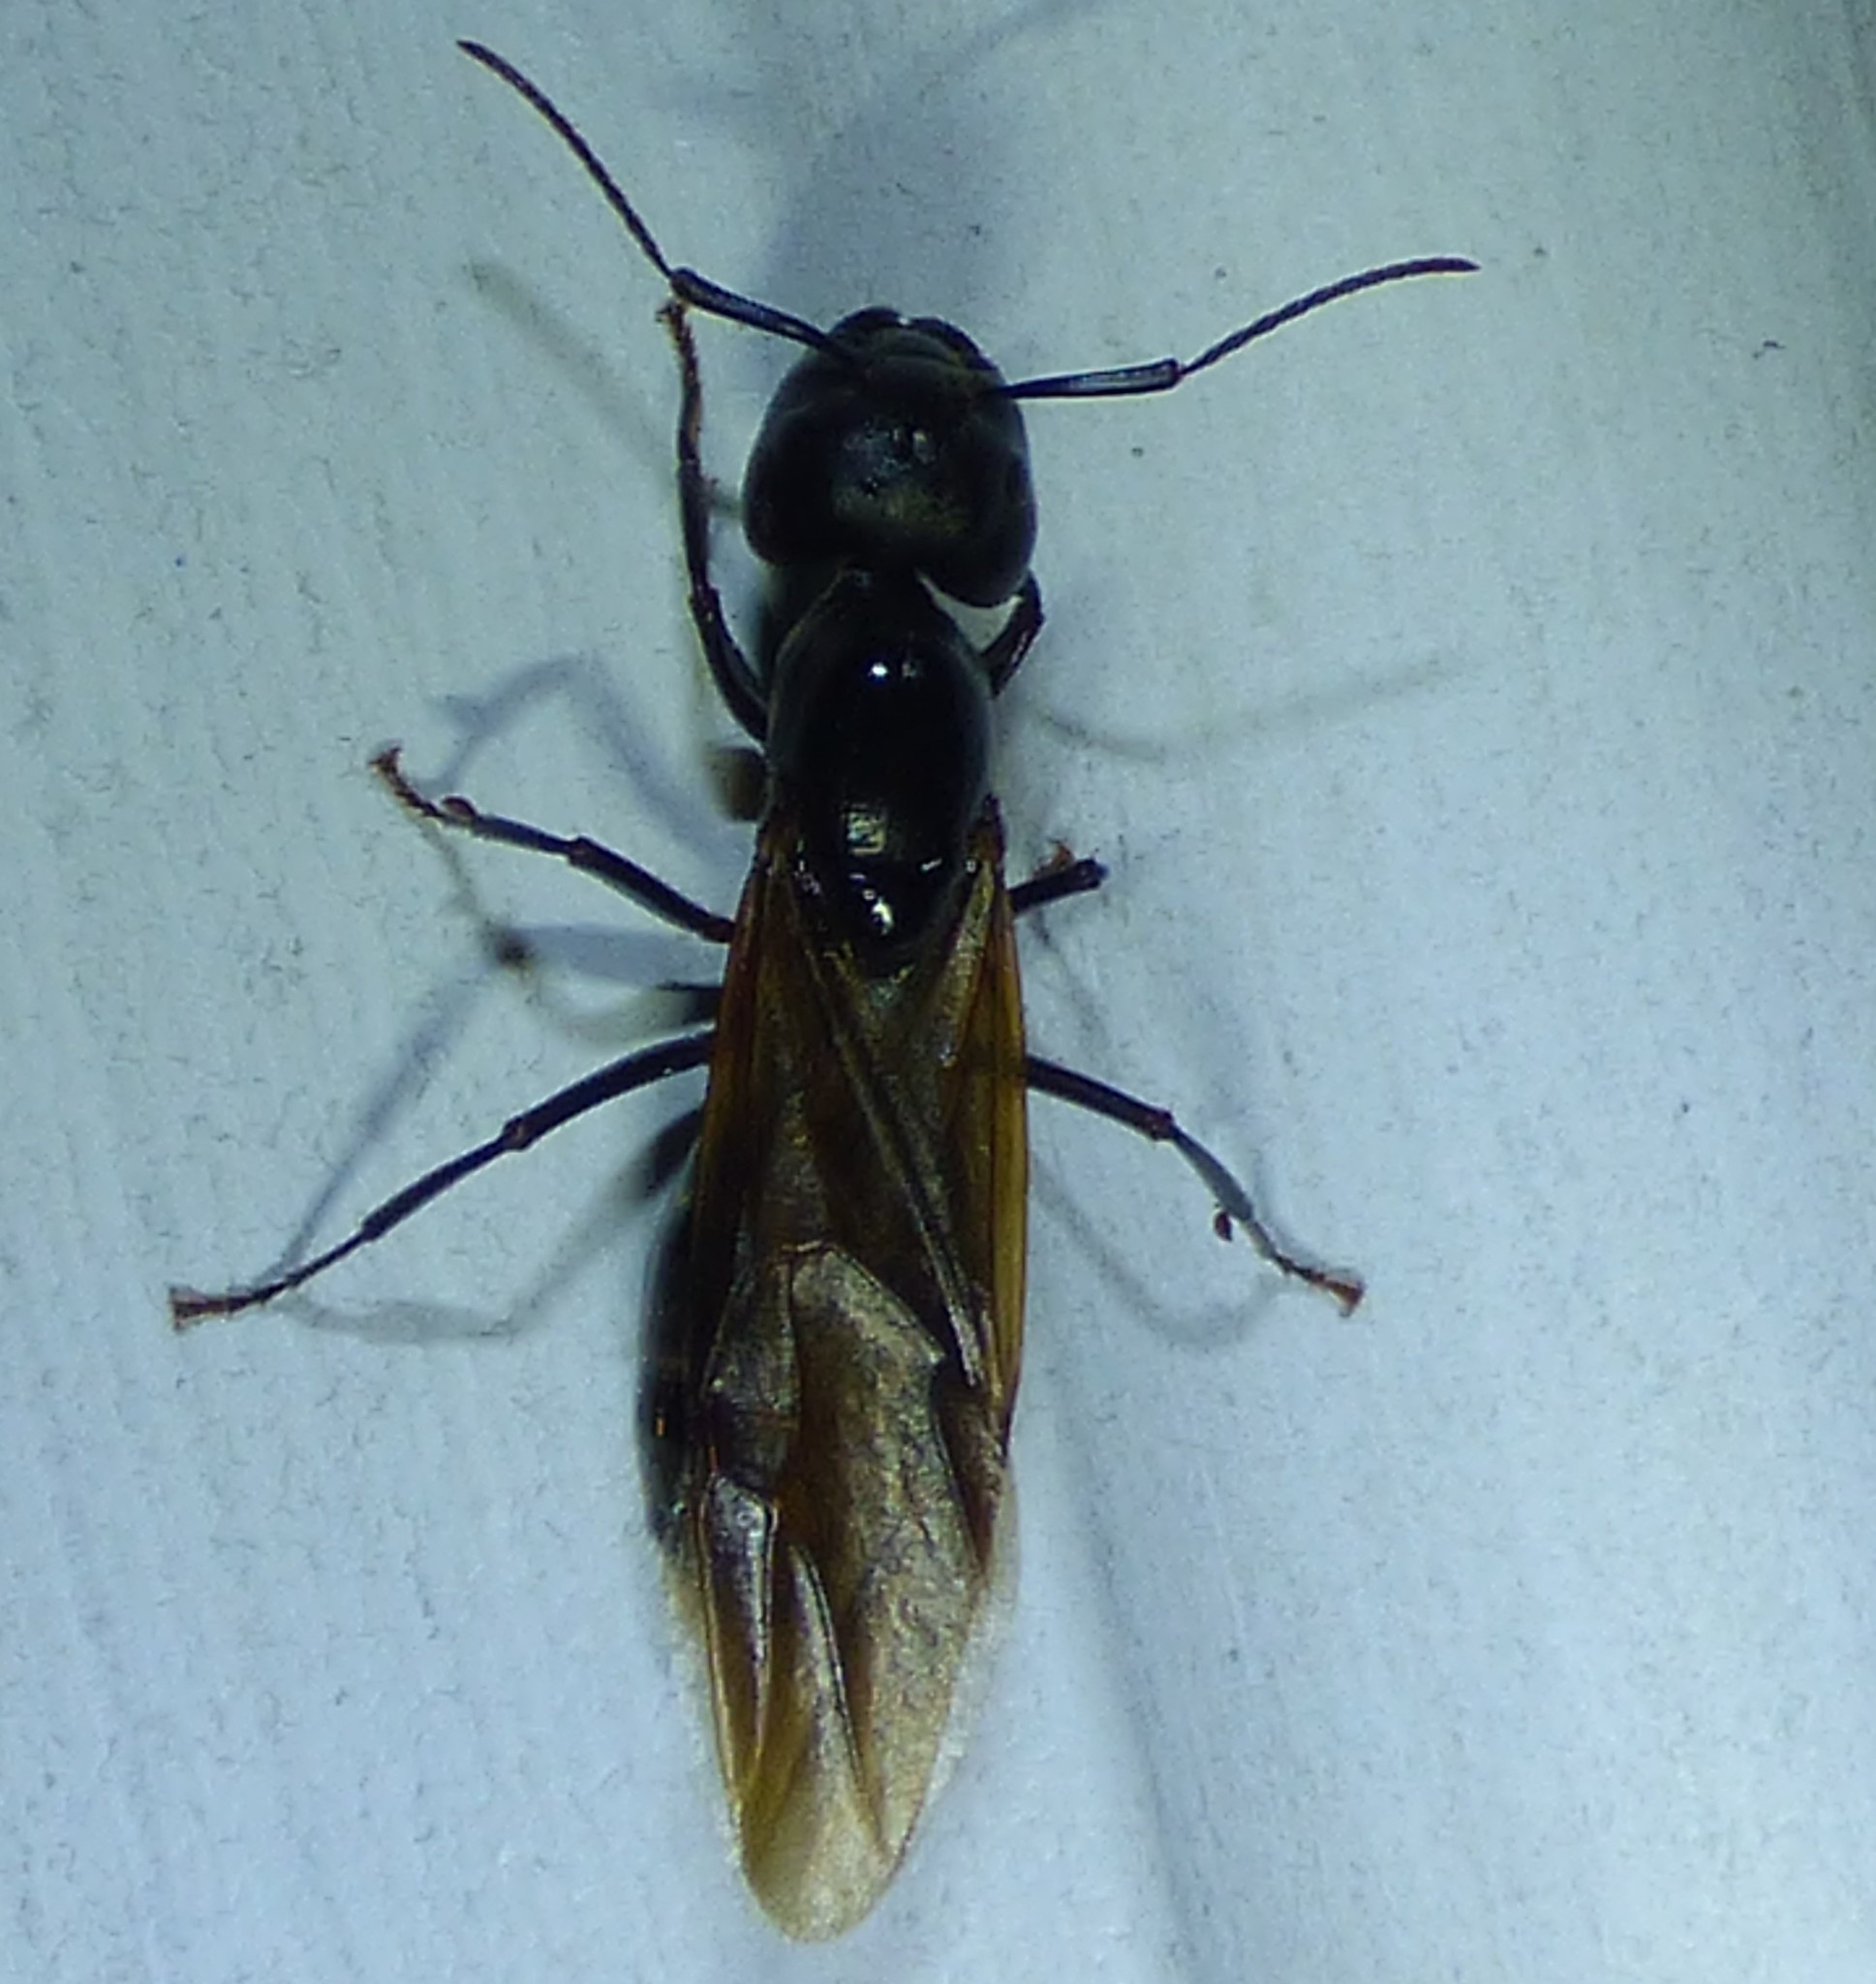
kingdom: Animalia
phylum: Arthropoda
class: Insecta
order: Hymenoptera
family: Formicidae
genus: Camponotus
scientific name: Camponotus pennsylvanicus
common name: Black carpenter ant
